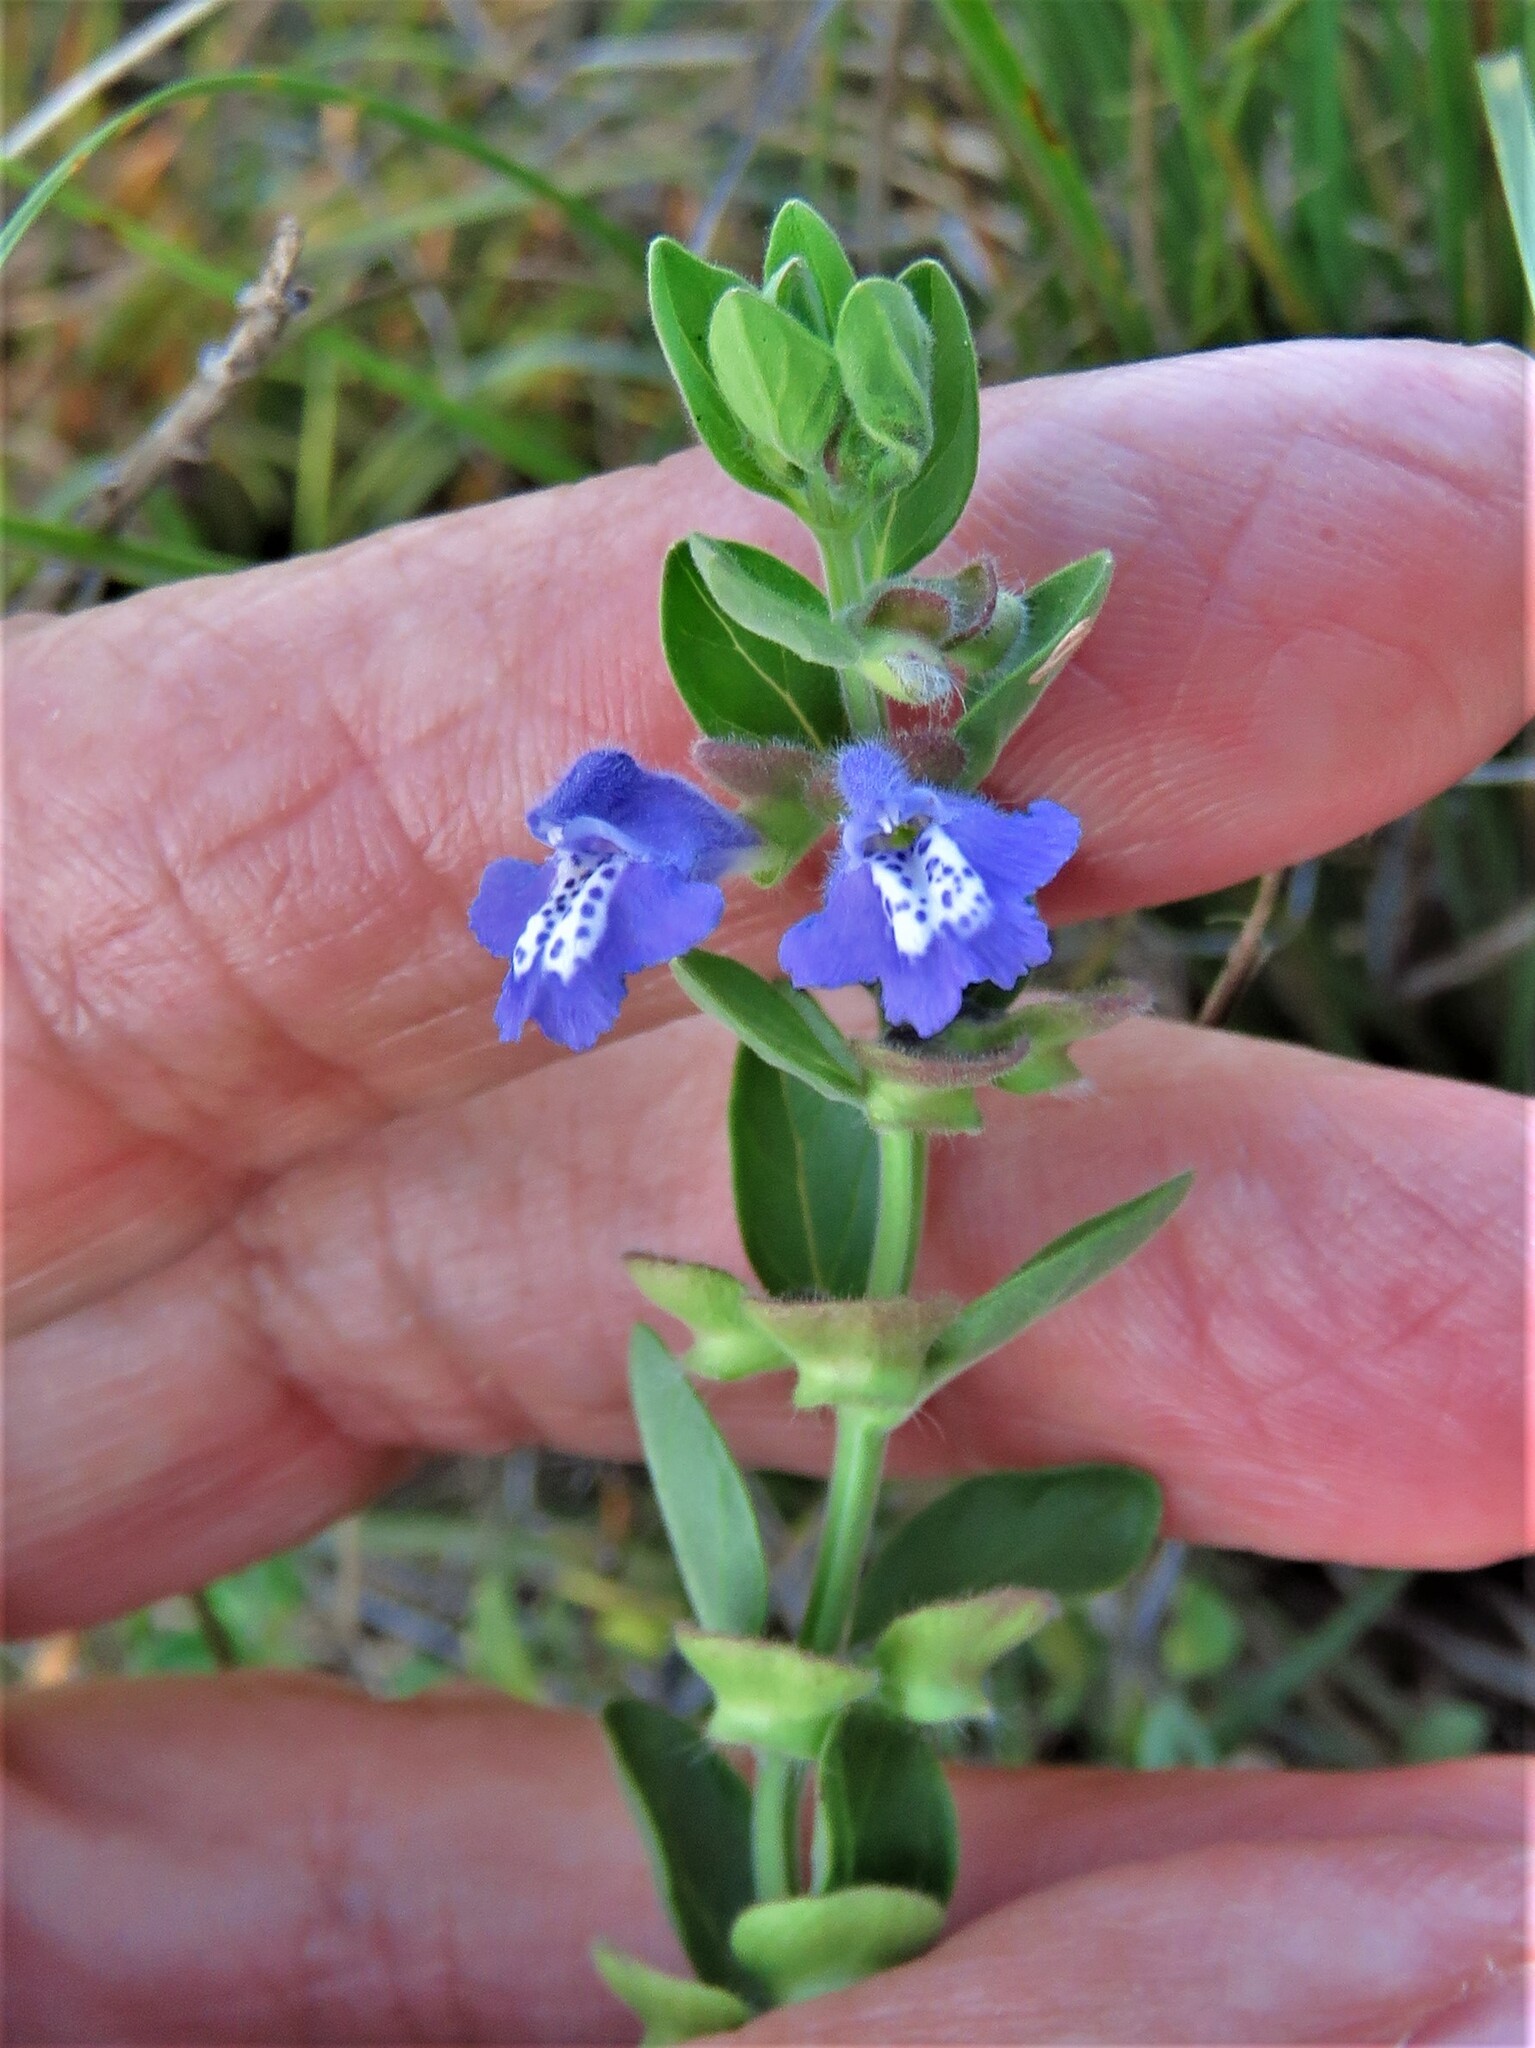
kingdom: Plantae
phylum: Tracheophyta
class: Magnoliopsida
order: Lamiales
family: Lamiaceae
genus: Scutellaria
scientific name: Scutellaria drummondii
